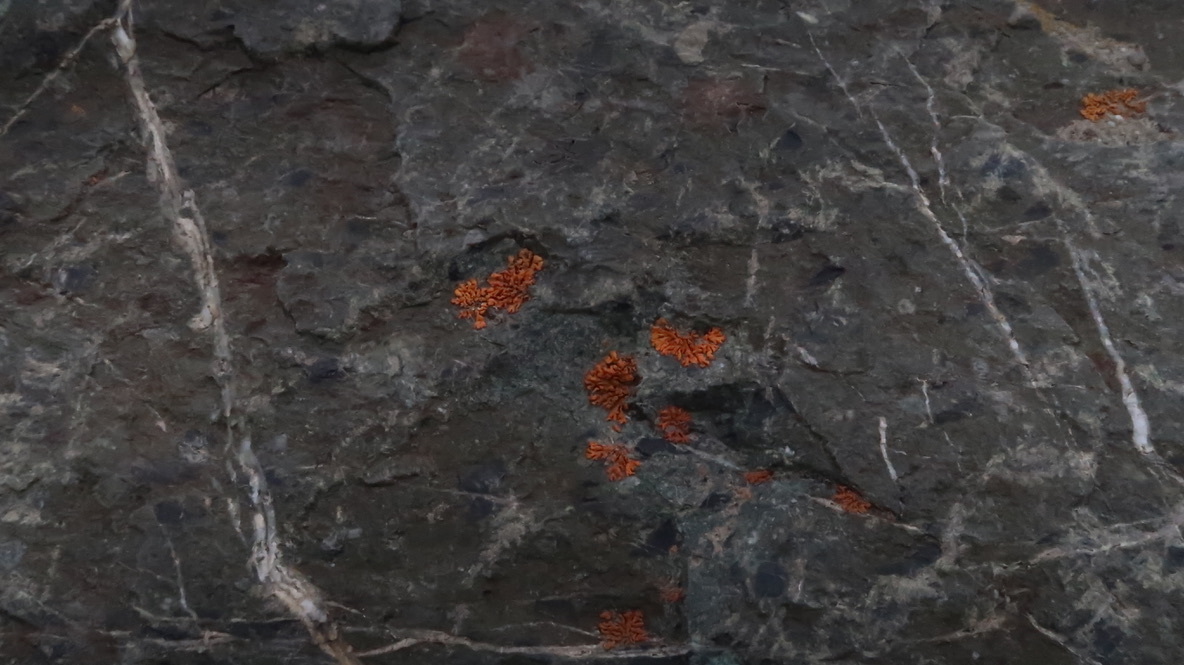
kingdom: Fungi
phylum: Ascomycota
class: Lecanoromycetes
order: Teloschistales
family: Teloschistaceae
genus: Xanthoria
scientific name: Xanthoria elegans
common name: Elegant sunburst lichen
